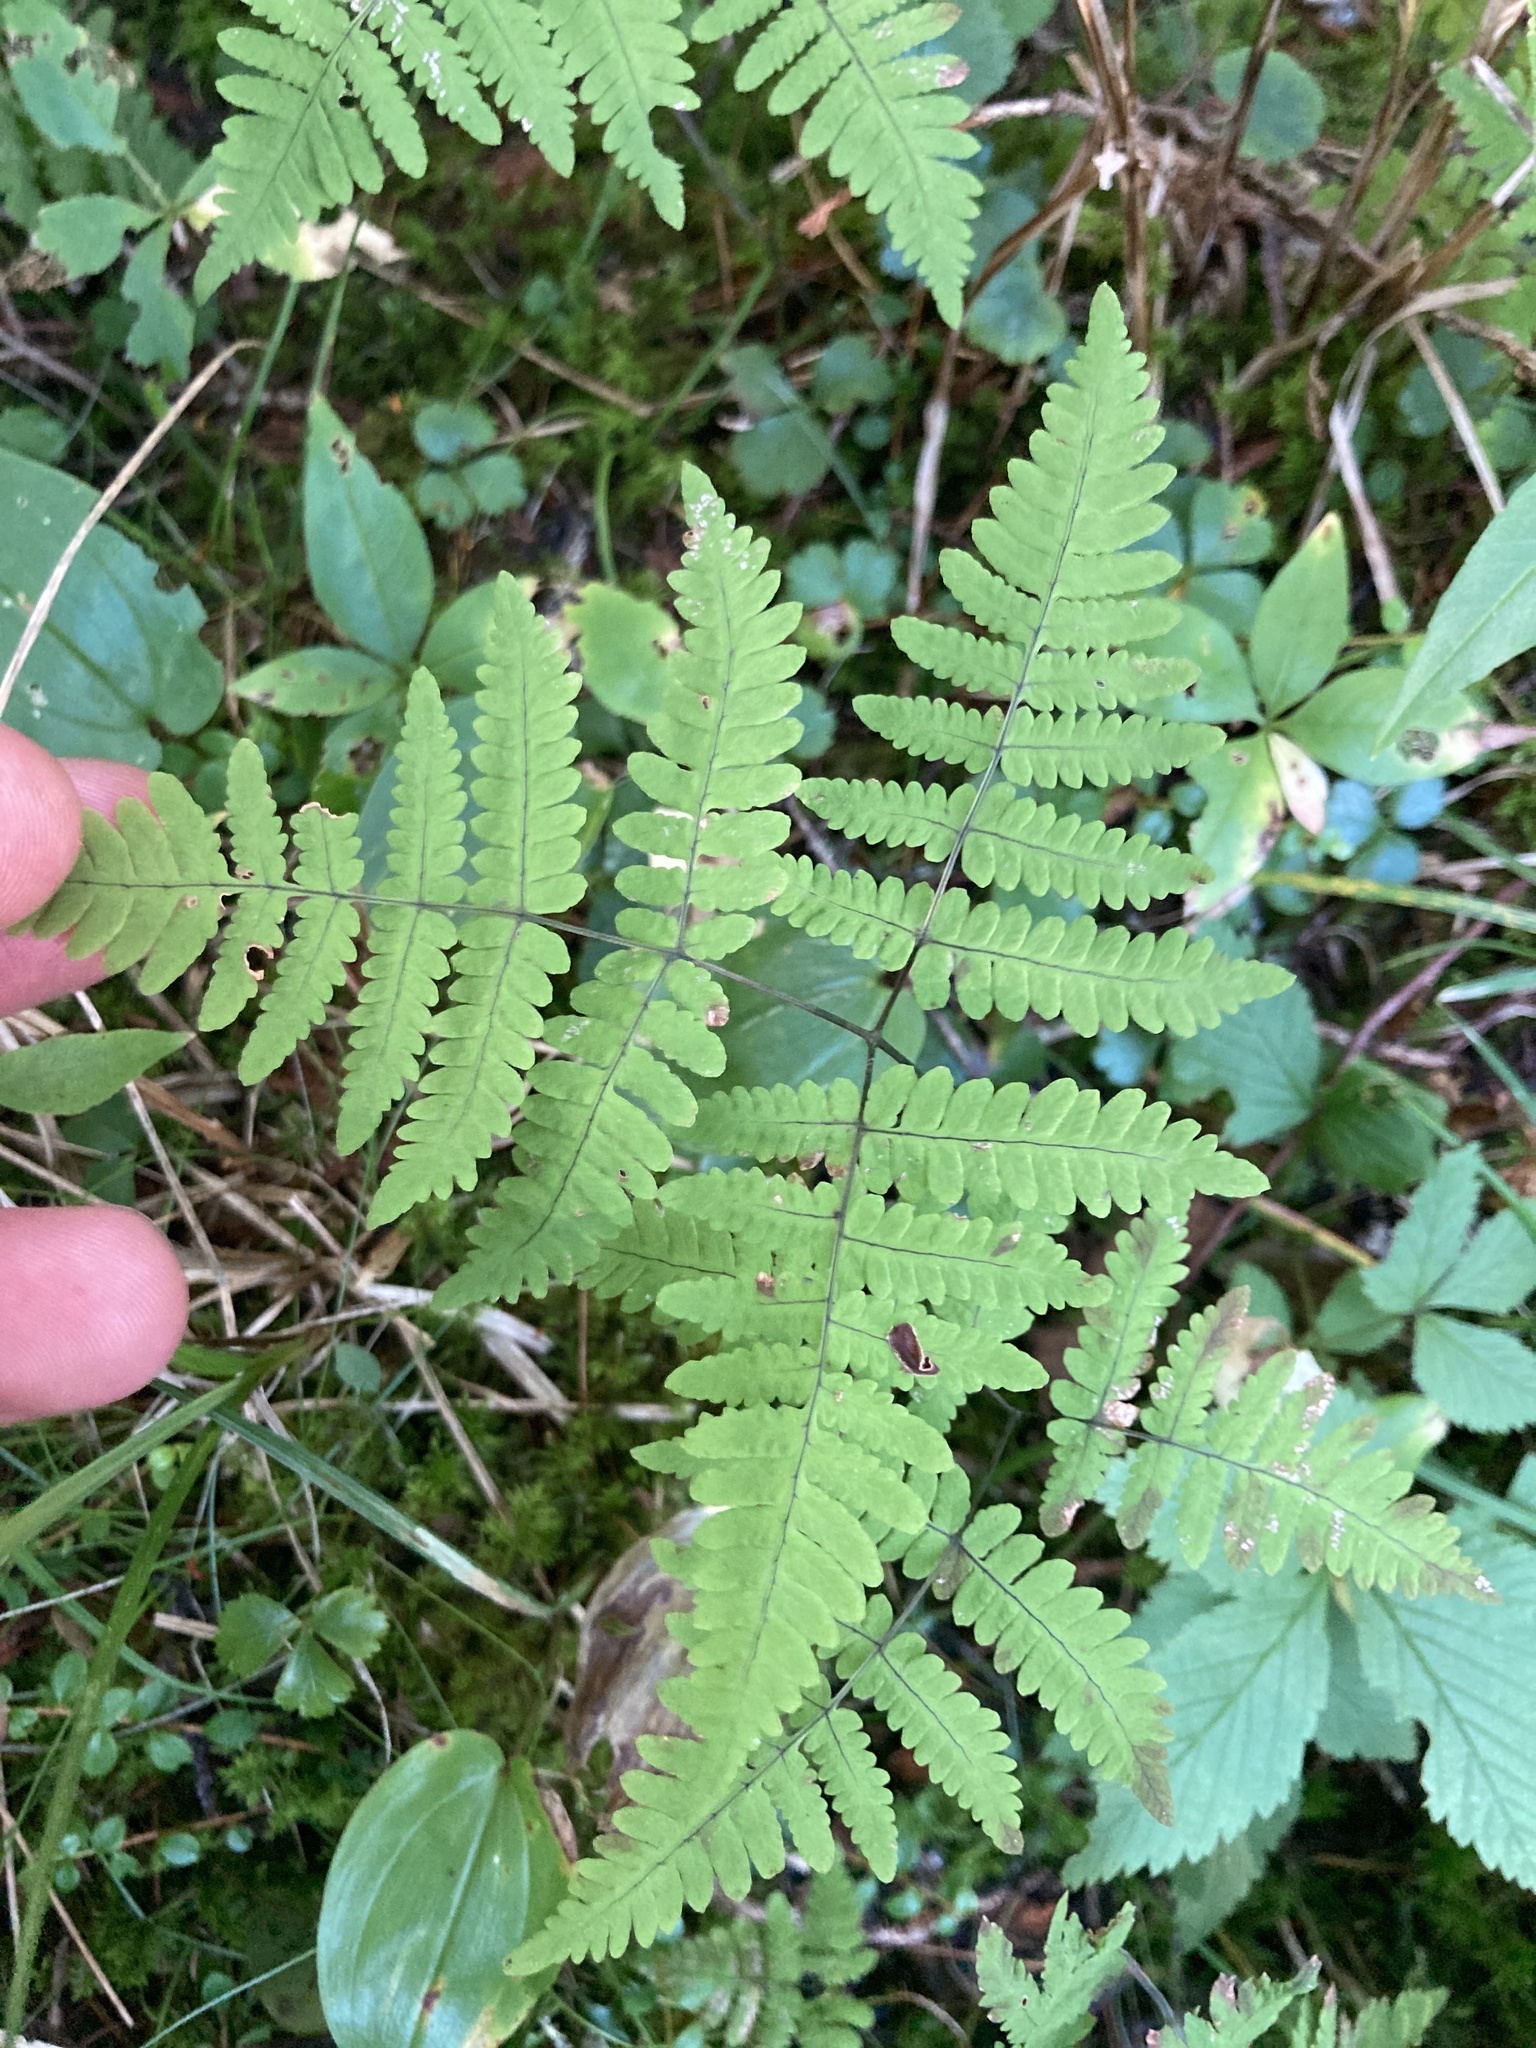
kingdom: Plantae
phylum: Tracheophyta
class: Polypodiopsida
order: Polypodiales
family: Cystopteridaceae
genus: Gymnocarpium
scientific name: Gymnocarpium dryopteris
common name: Oak fern
